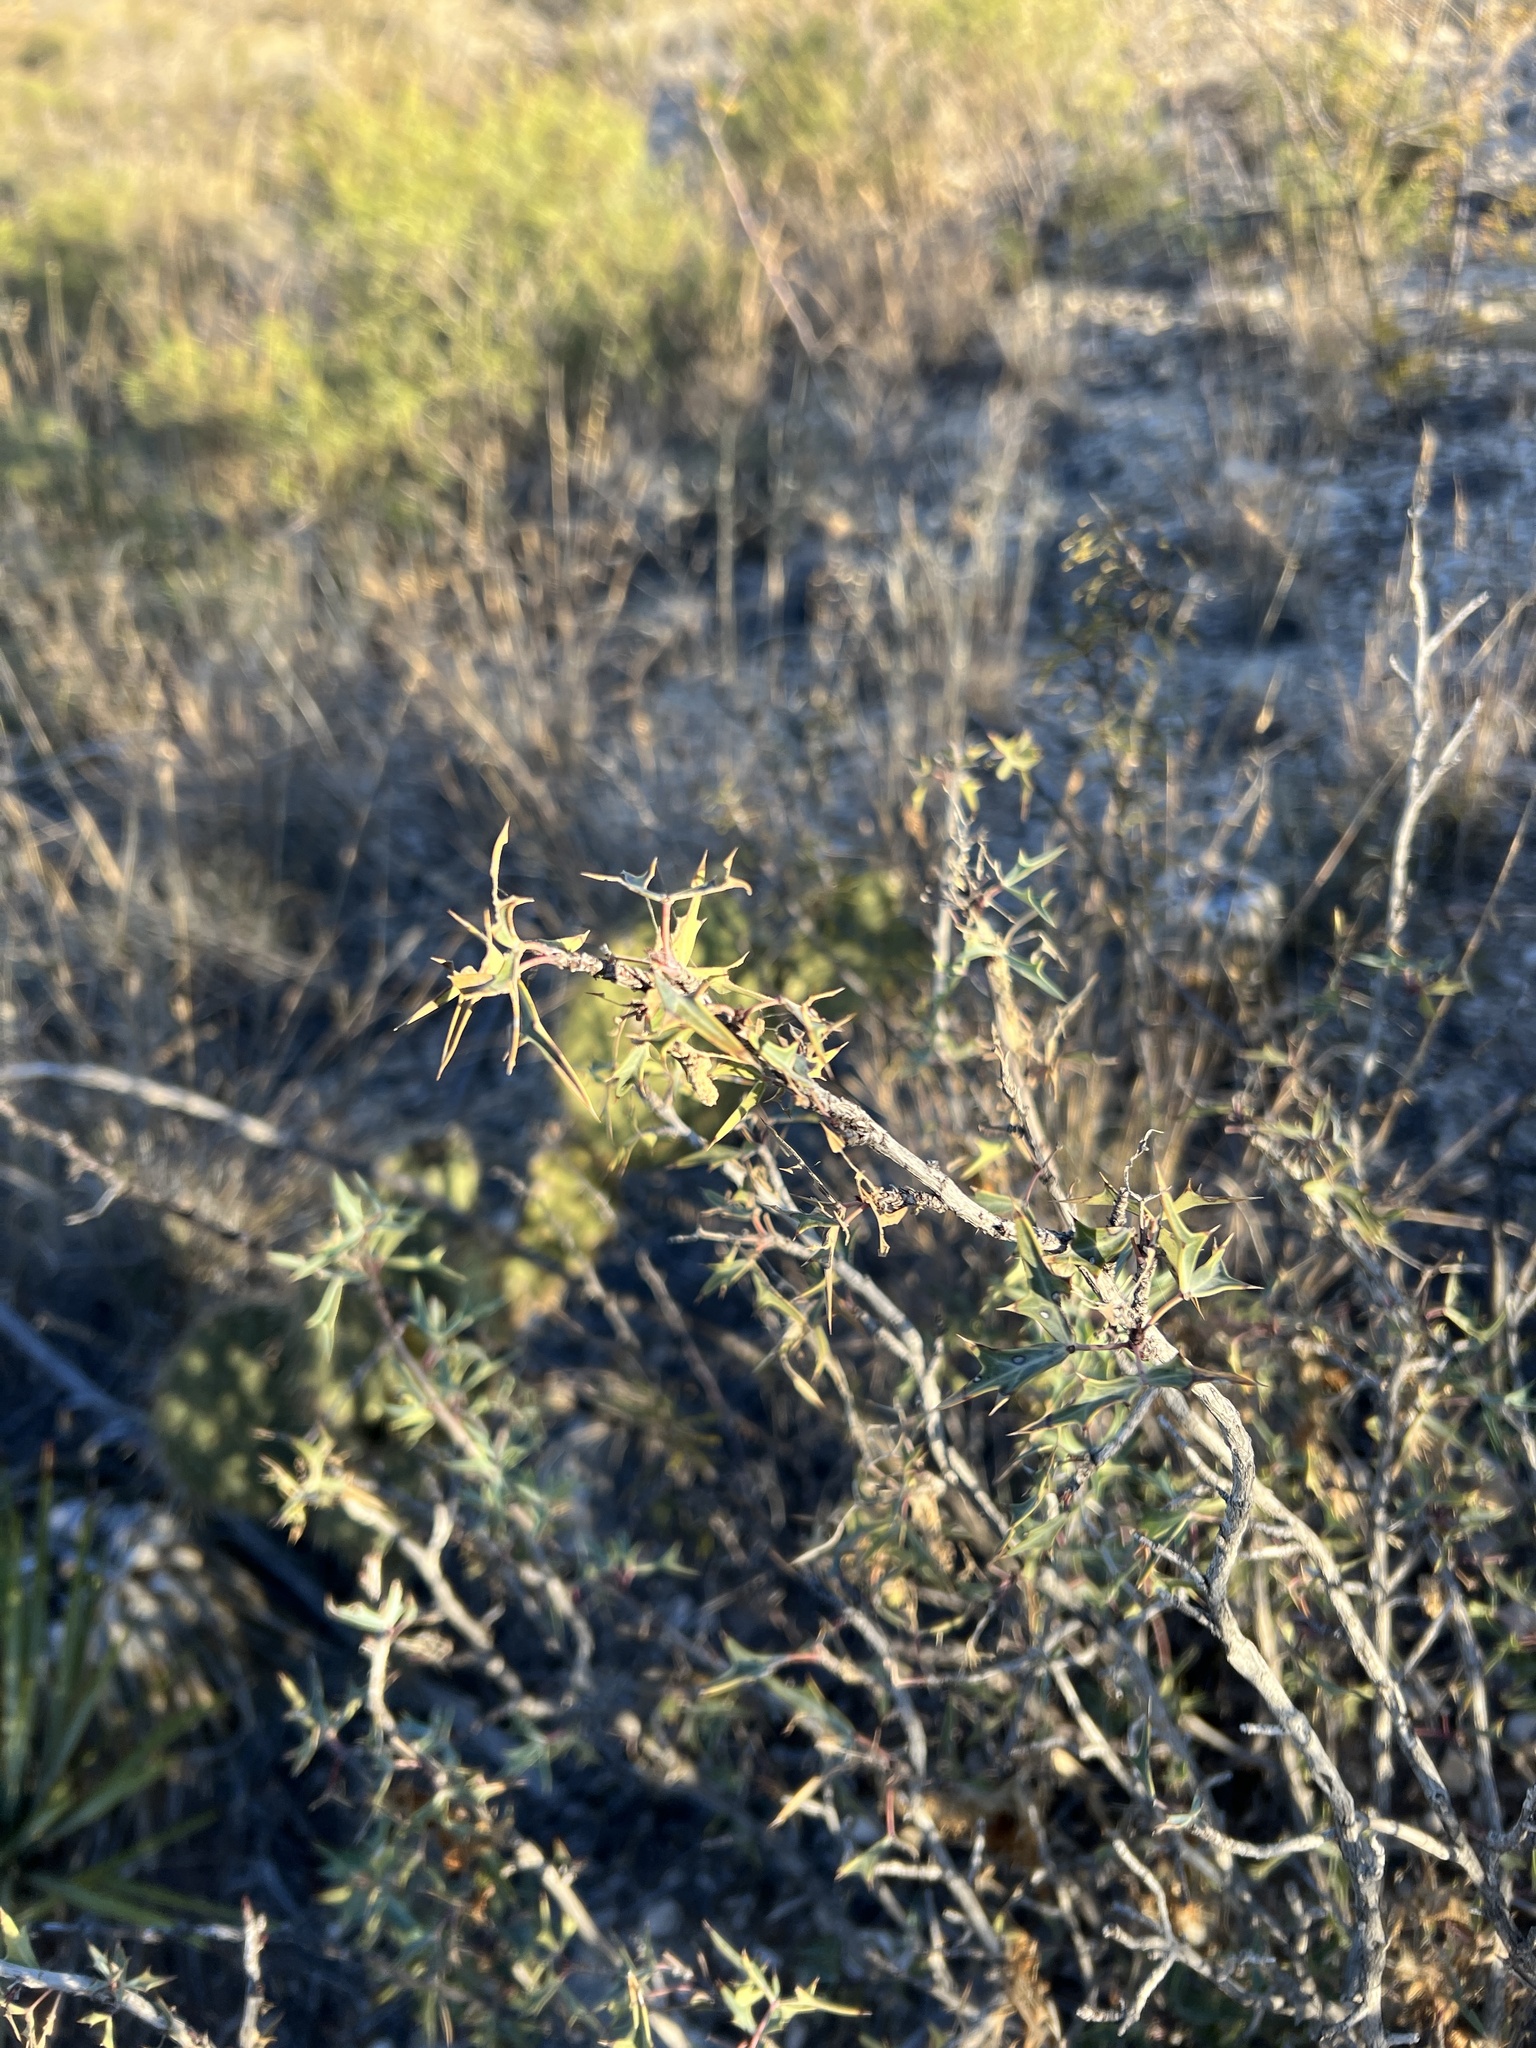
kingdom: Plantae
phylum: Tracheophyta
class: Magnoliopsida
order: Ranunculales
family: Berberidaceae
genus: Alloberberis
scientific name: Alloberberis trifoliolata
